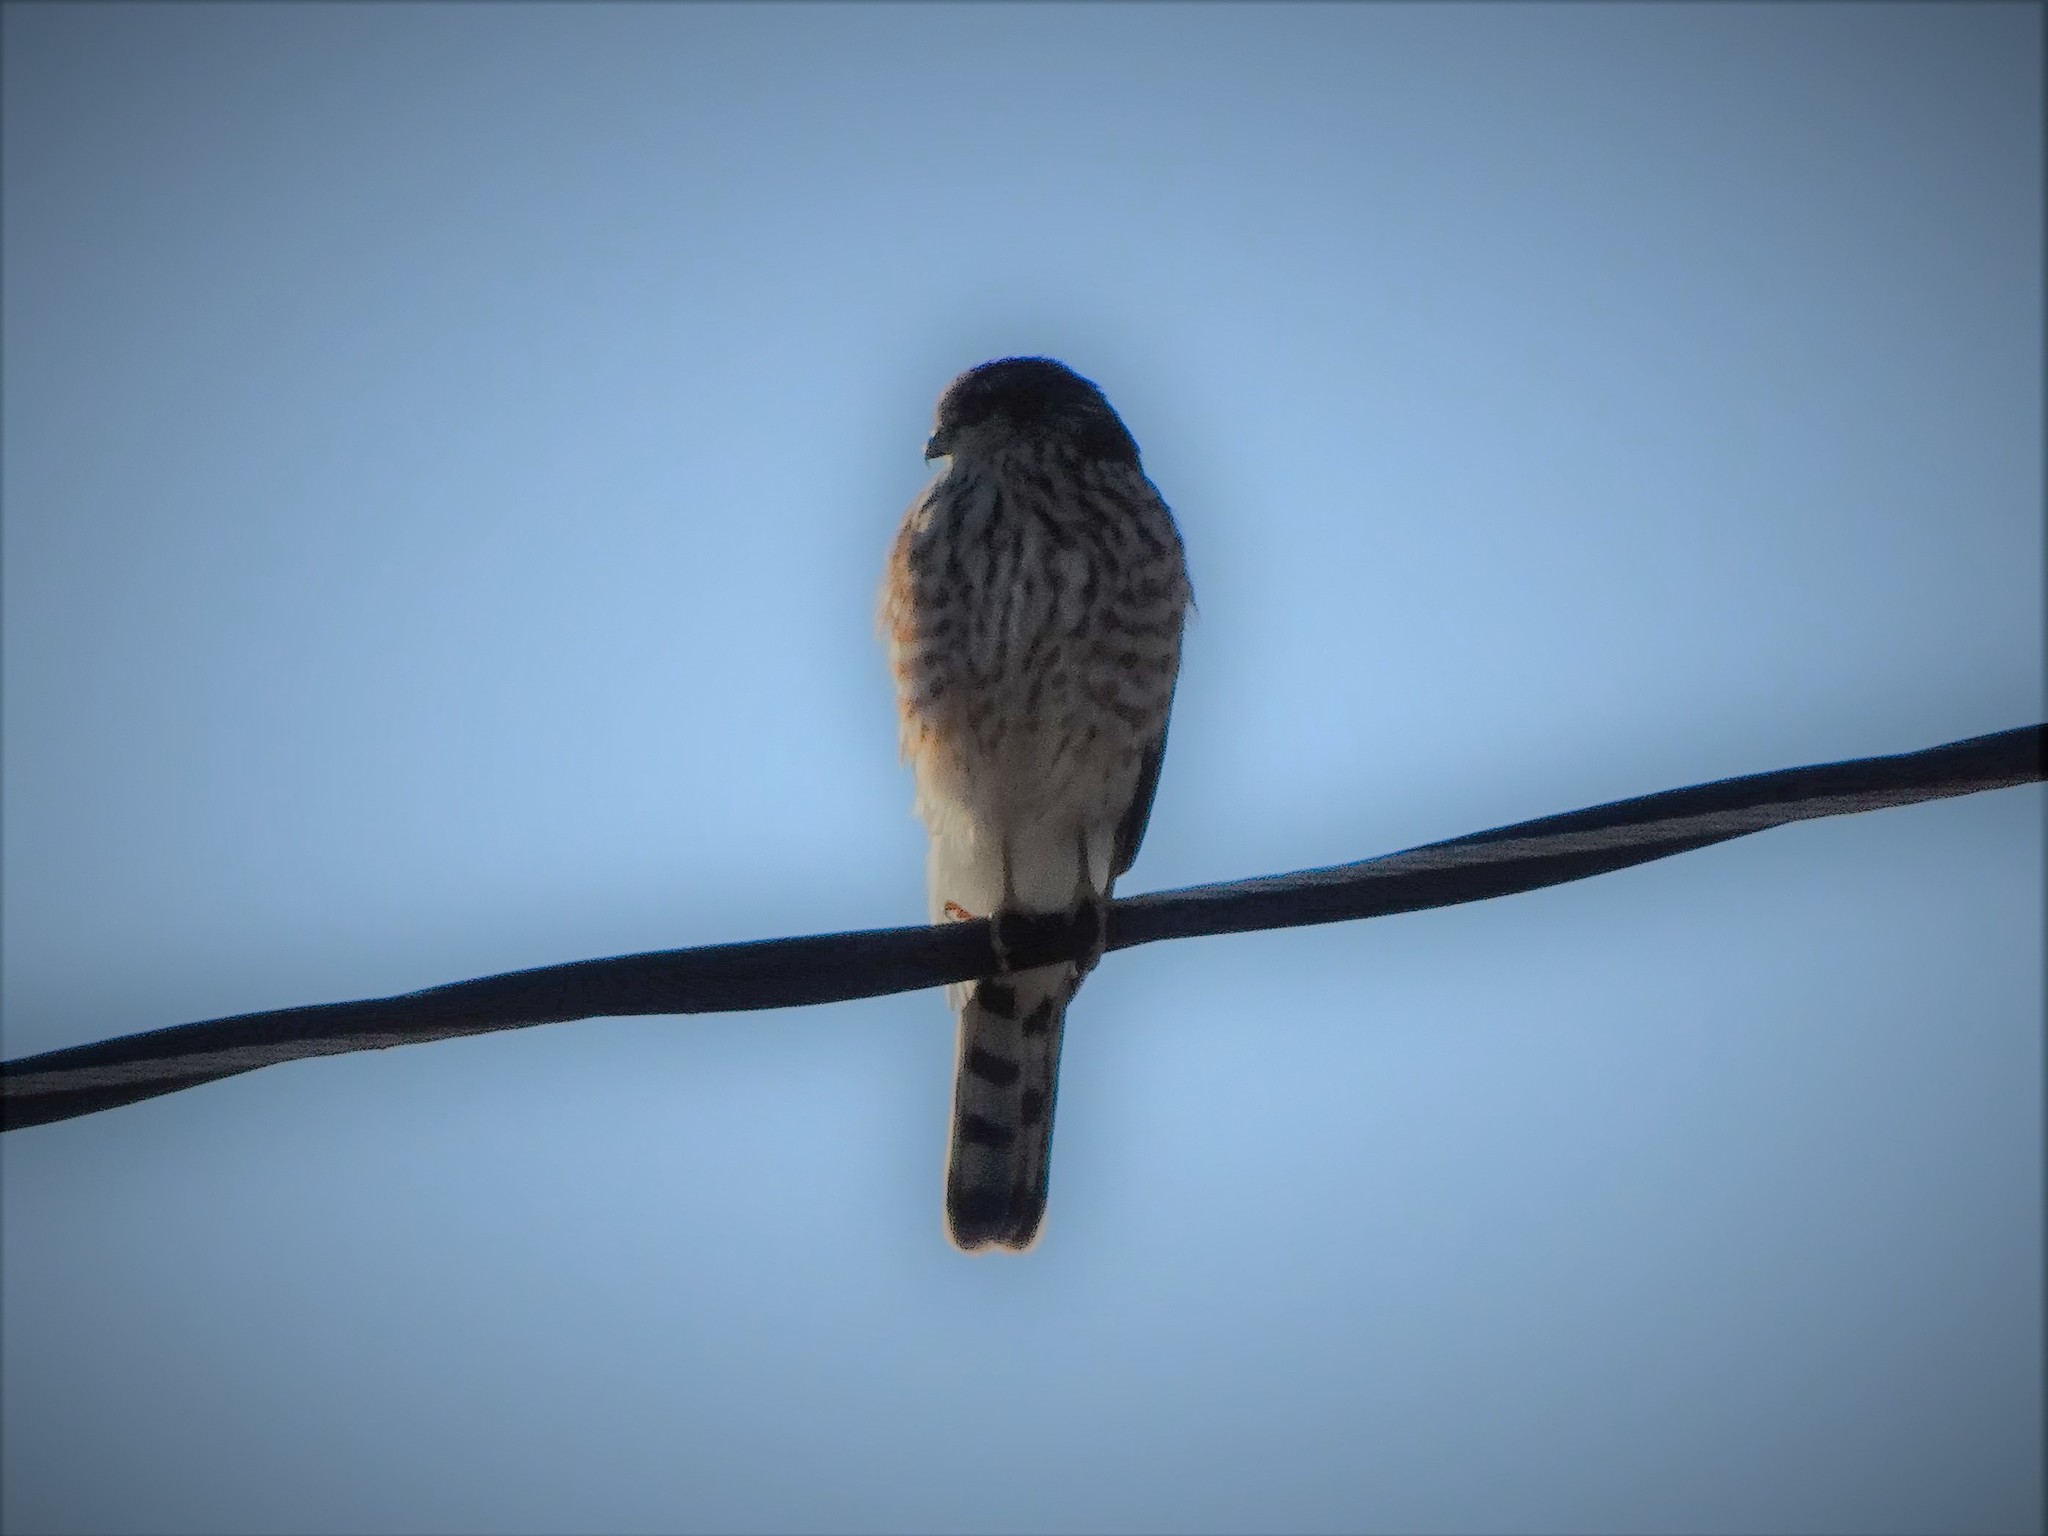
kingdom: Animalia
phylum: Chordata
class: Aves
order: Accipitriformes
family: Accipitridae
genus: Accipiter
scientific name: Accipiter striatus
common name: Sharp-shinned hawk
